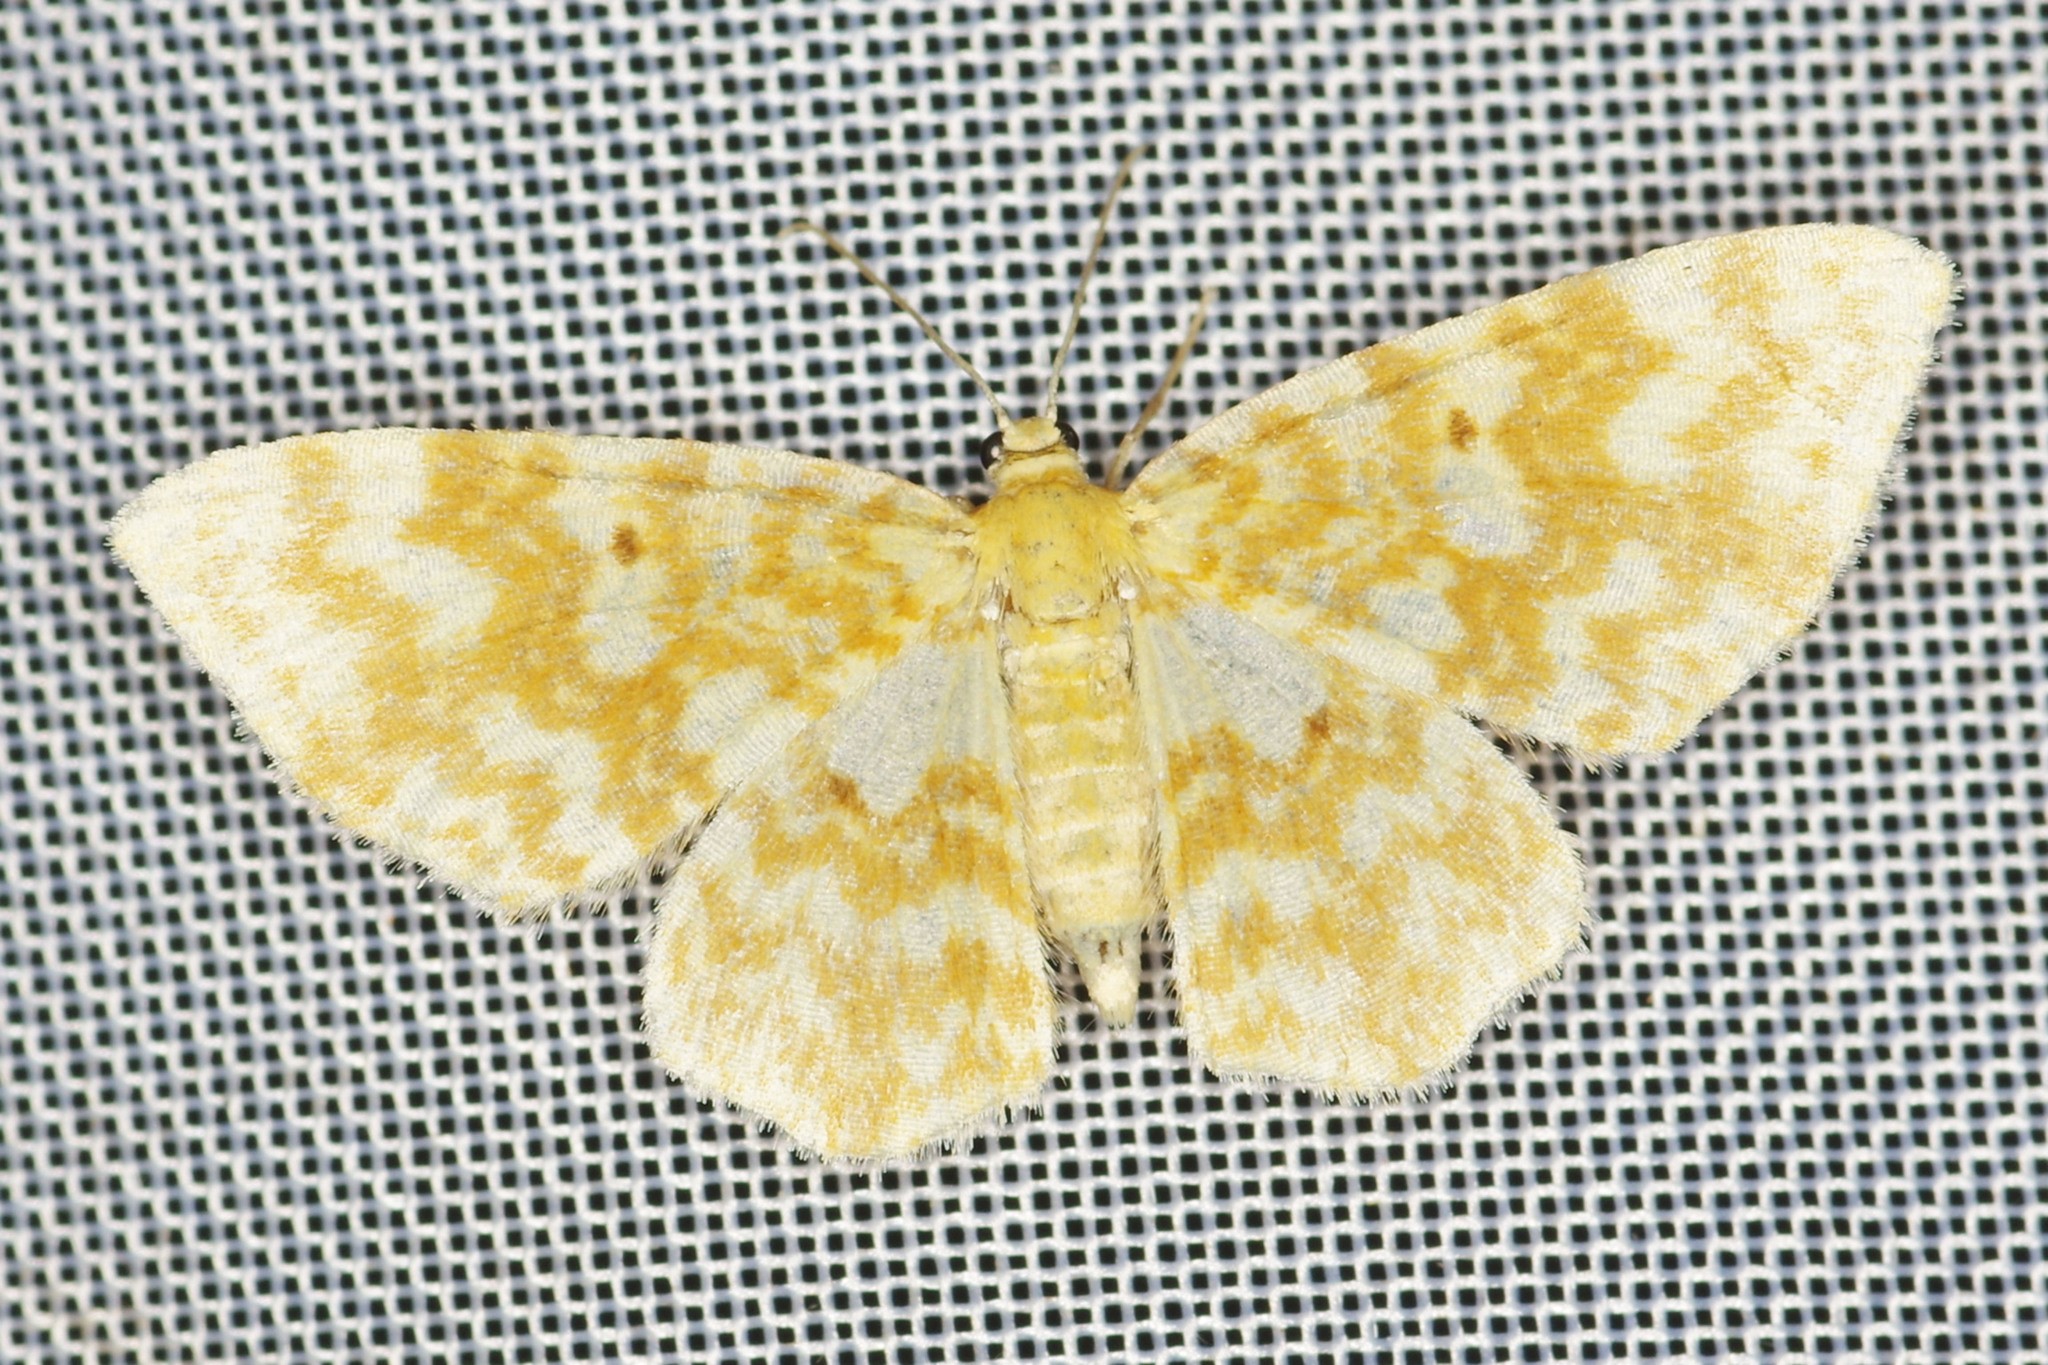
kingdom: Animalia
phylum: Arthropoda
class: Insecta
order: Lepidoptera
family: Geometridae
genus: Hydrelia
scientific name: Hydrelia flammeolaria
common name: Small yellow wave
